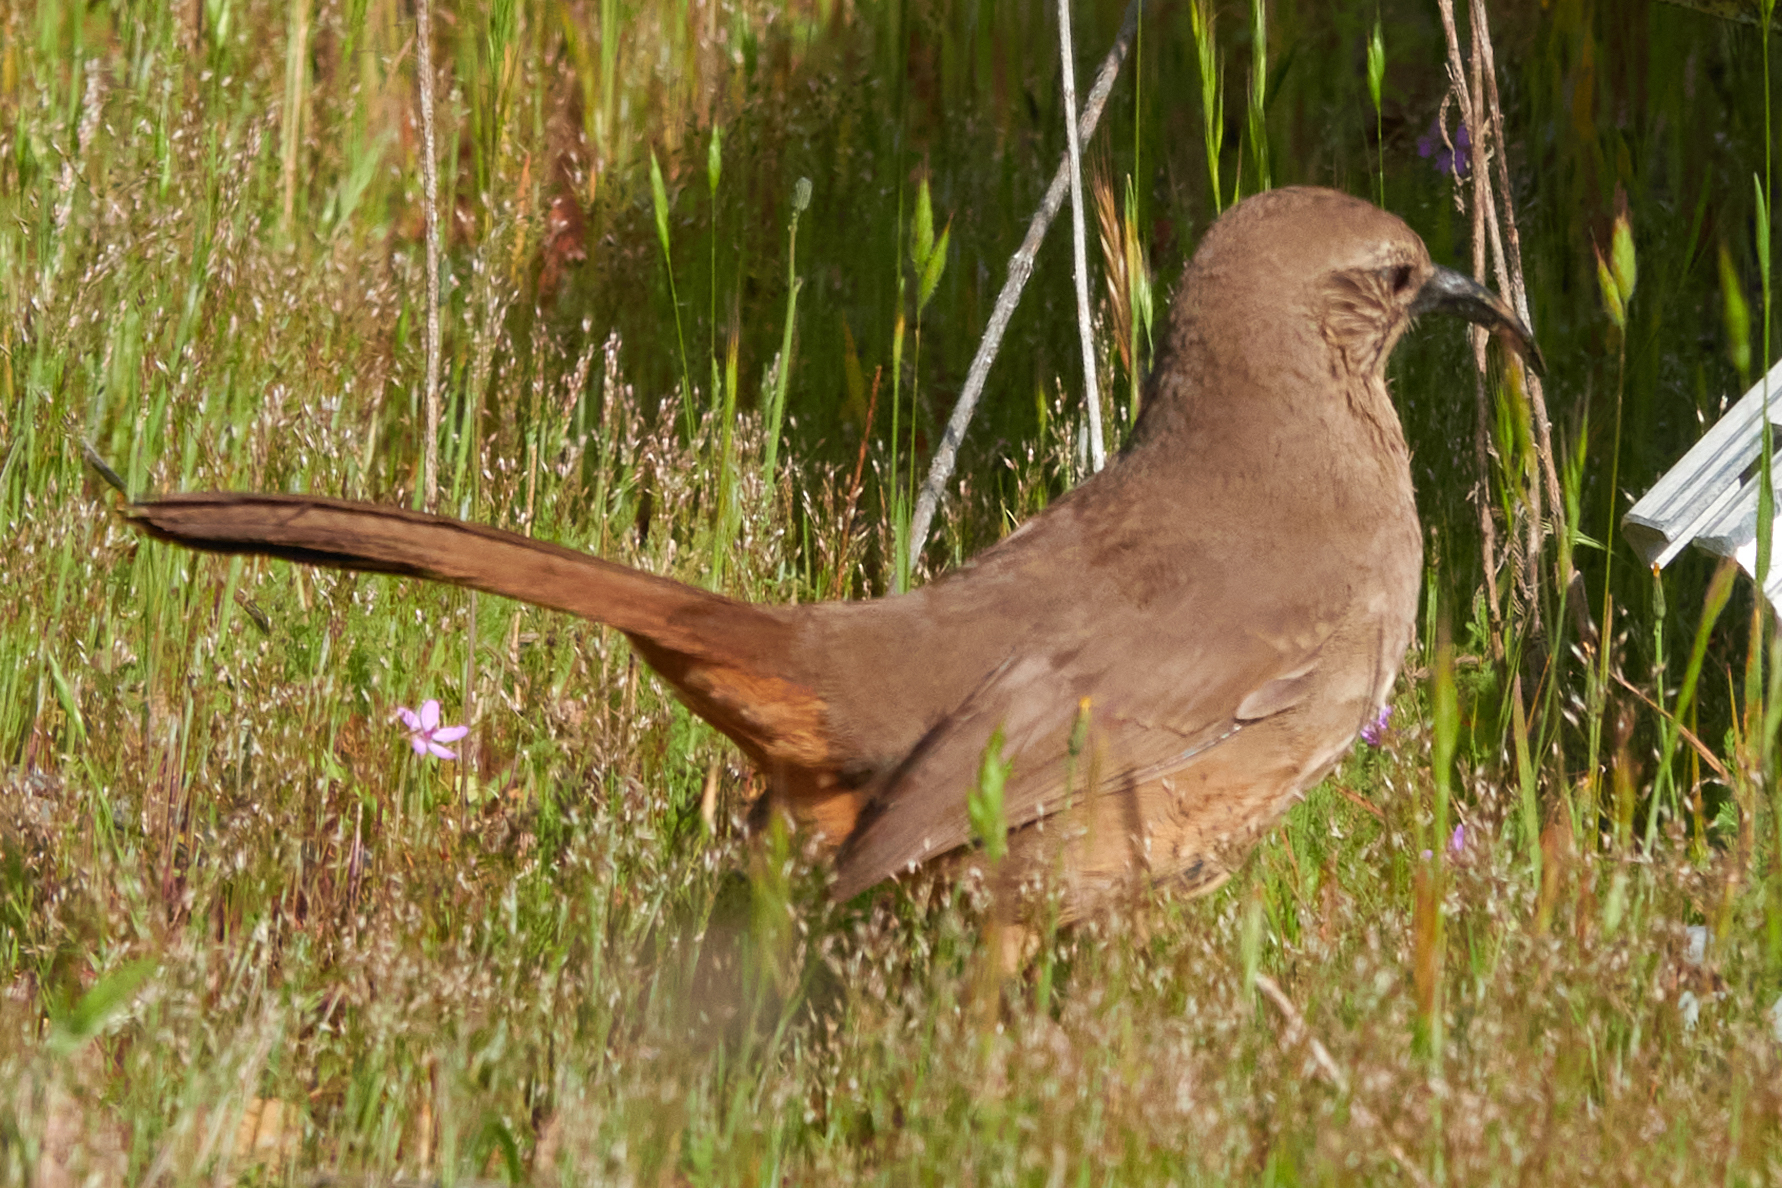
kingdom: Animalia
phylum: Chordata
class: Aves
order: Passeriformes
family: Mimidae
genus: Toxostoma
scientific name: Toxostoma redivivum
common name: California thrasher
